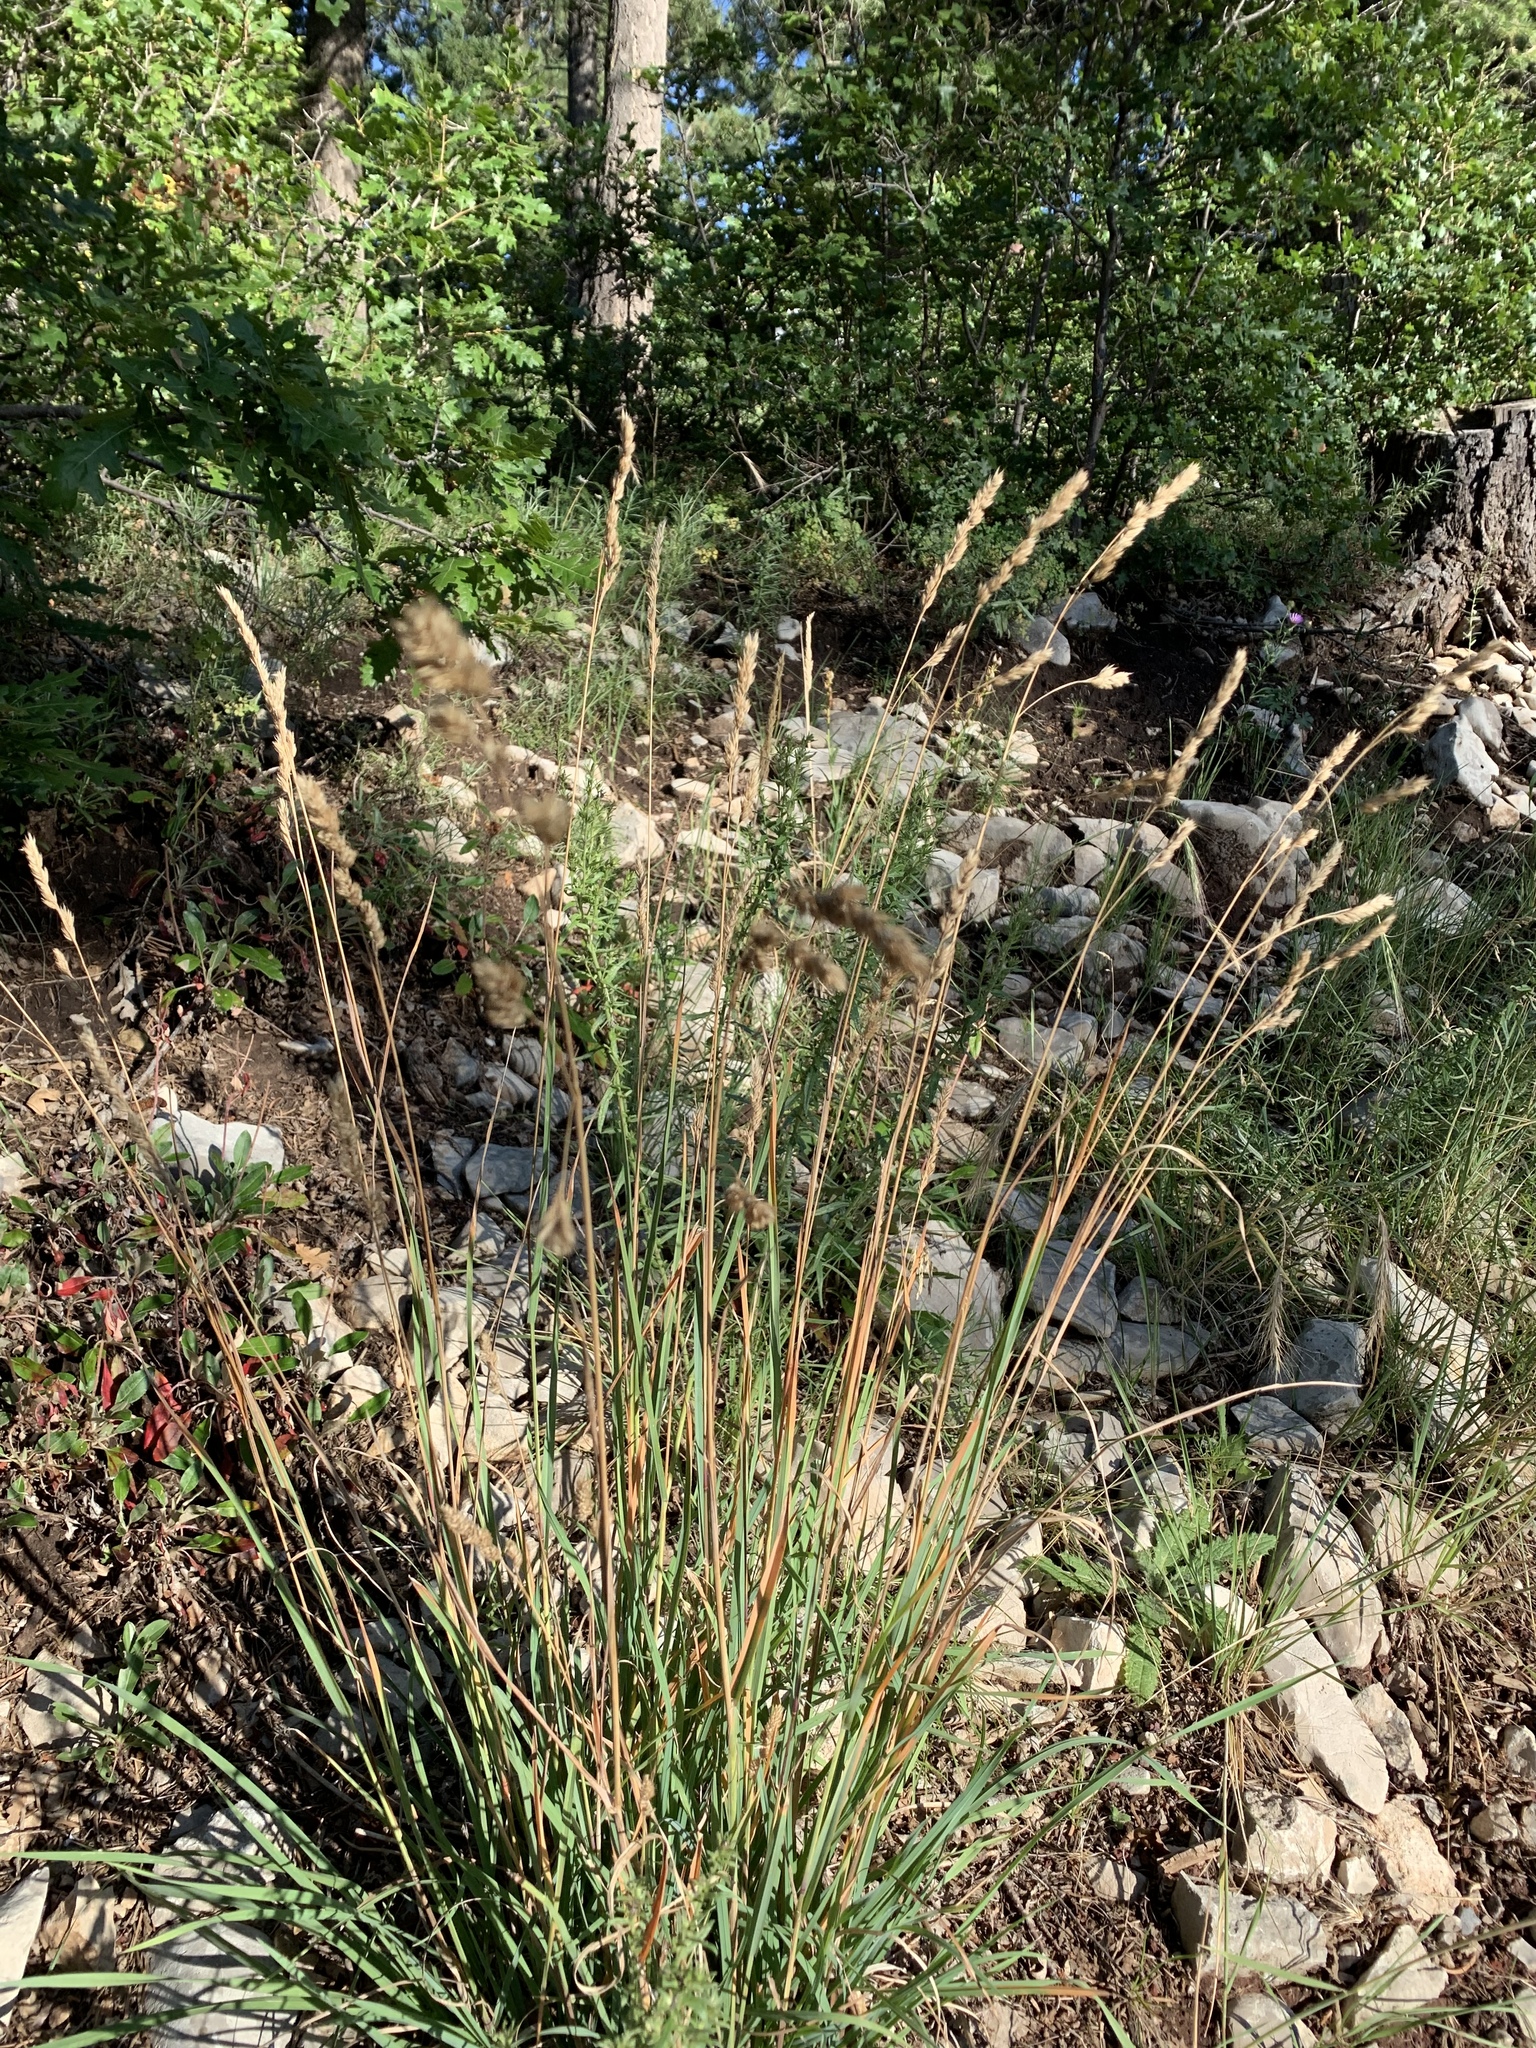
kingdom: Plantae
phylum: Tracheophyta
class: Liliopsida
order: Poales
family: Poaceae
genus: Dactylis
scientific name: Dactylis glomerata
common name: Orchardgrass
